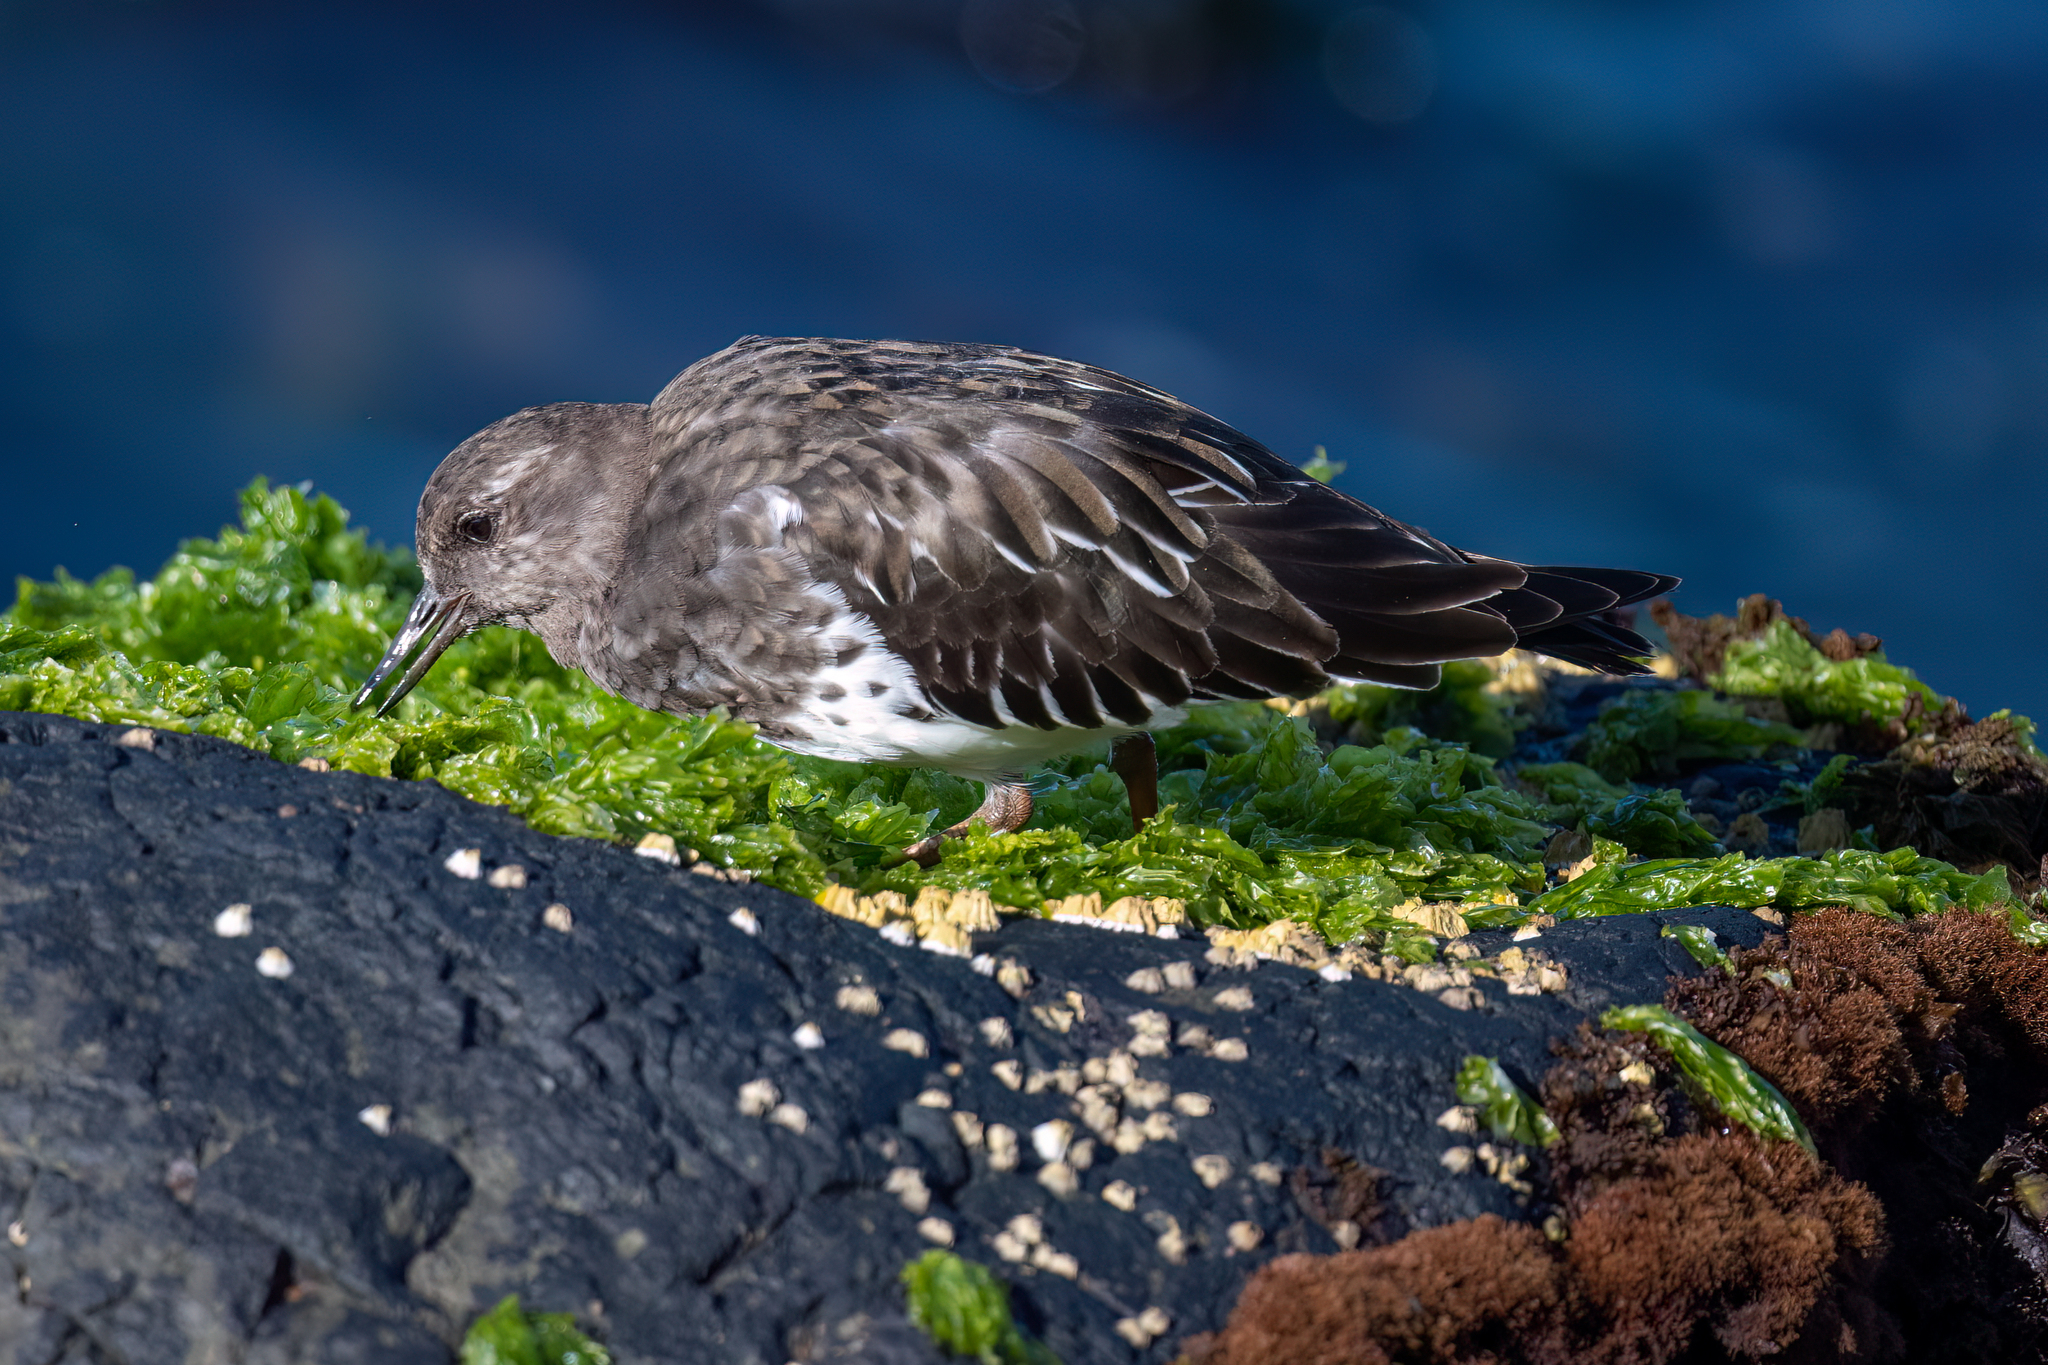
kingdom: Animalia
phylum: Chordata
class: Aves
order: Charadriiformes
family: Scolopacidae
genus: Arenaria
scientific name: Arenaria melanocephala
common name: Black turnstone
